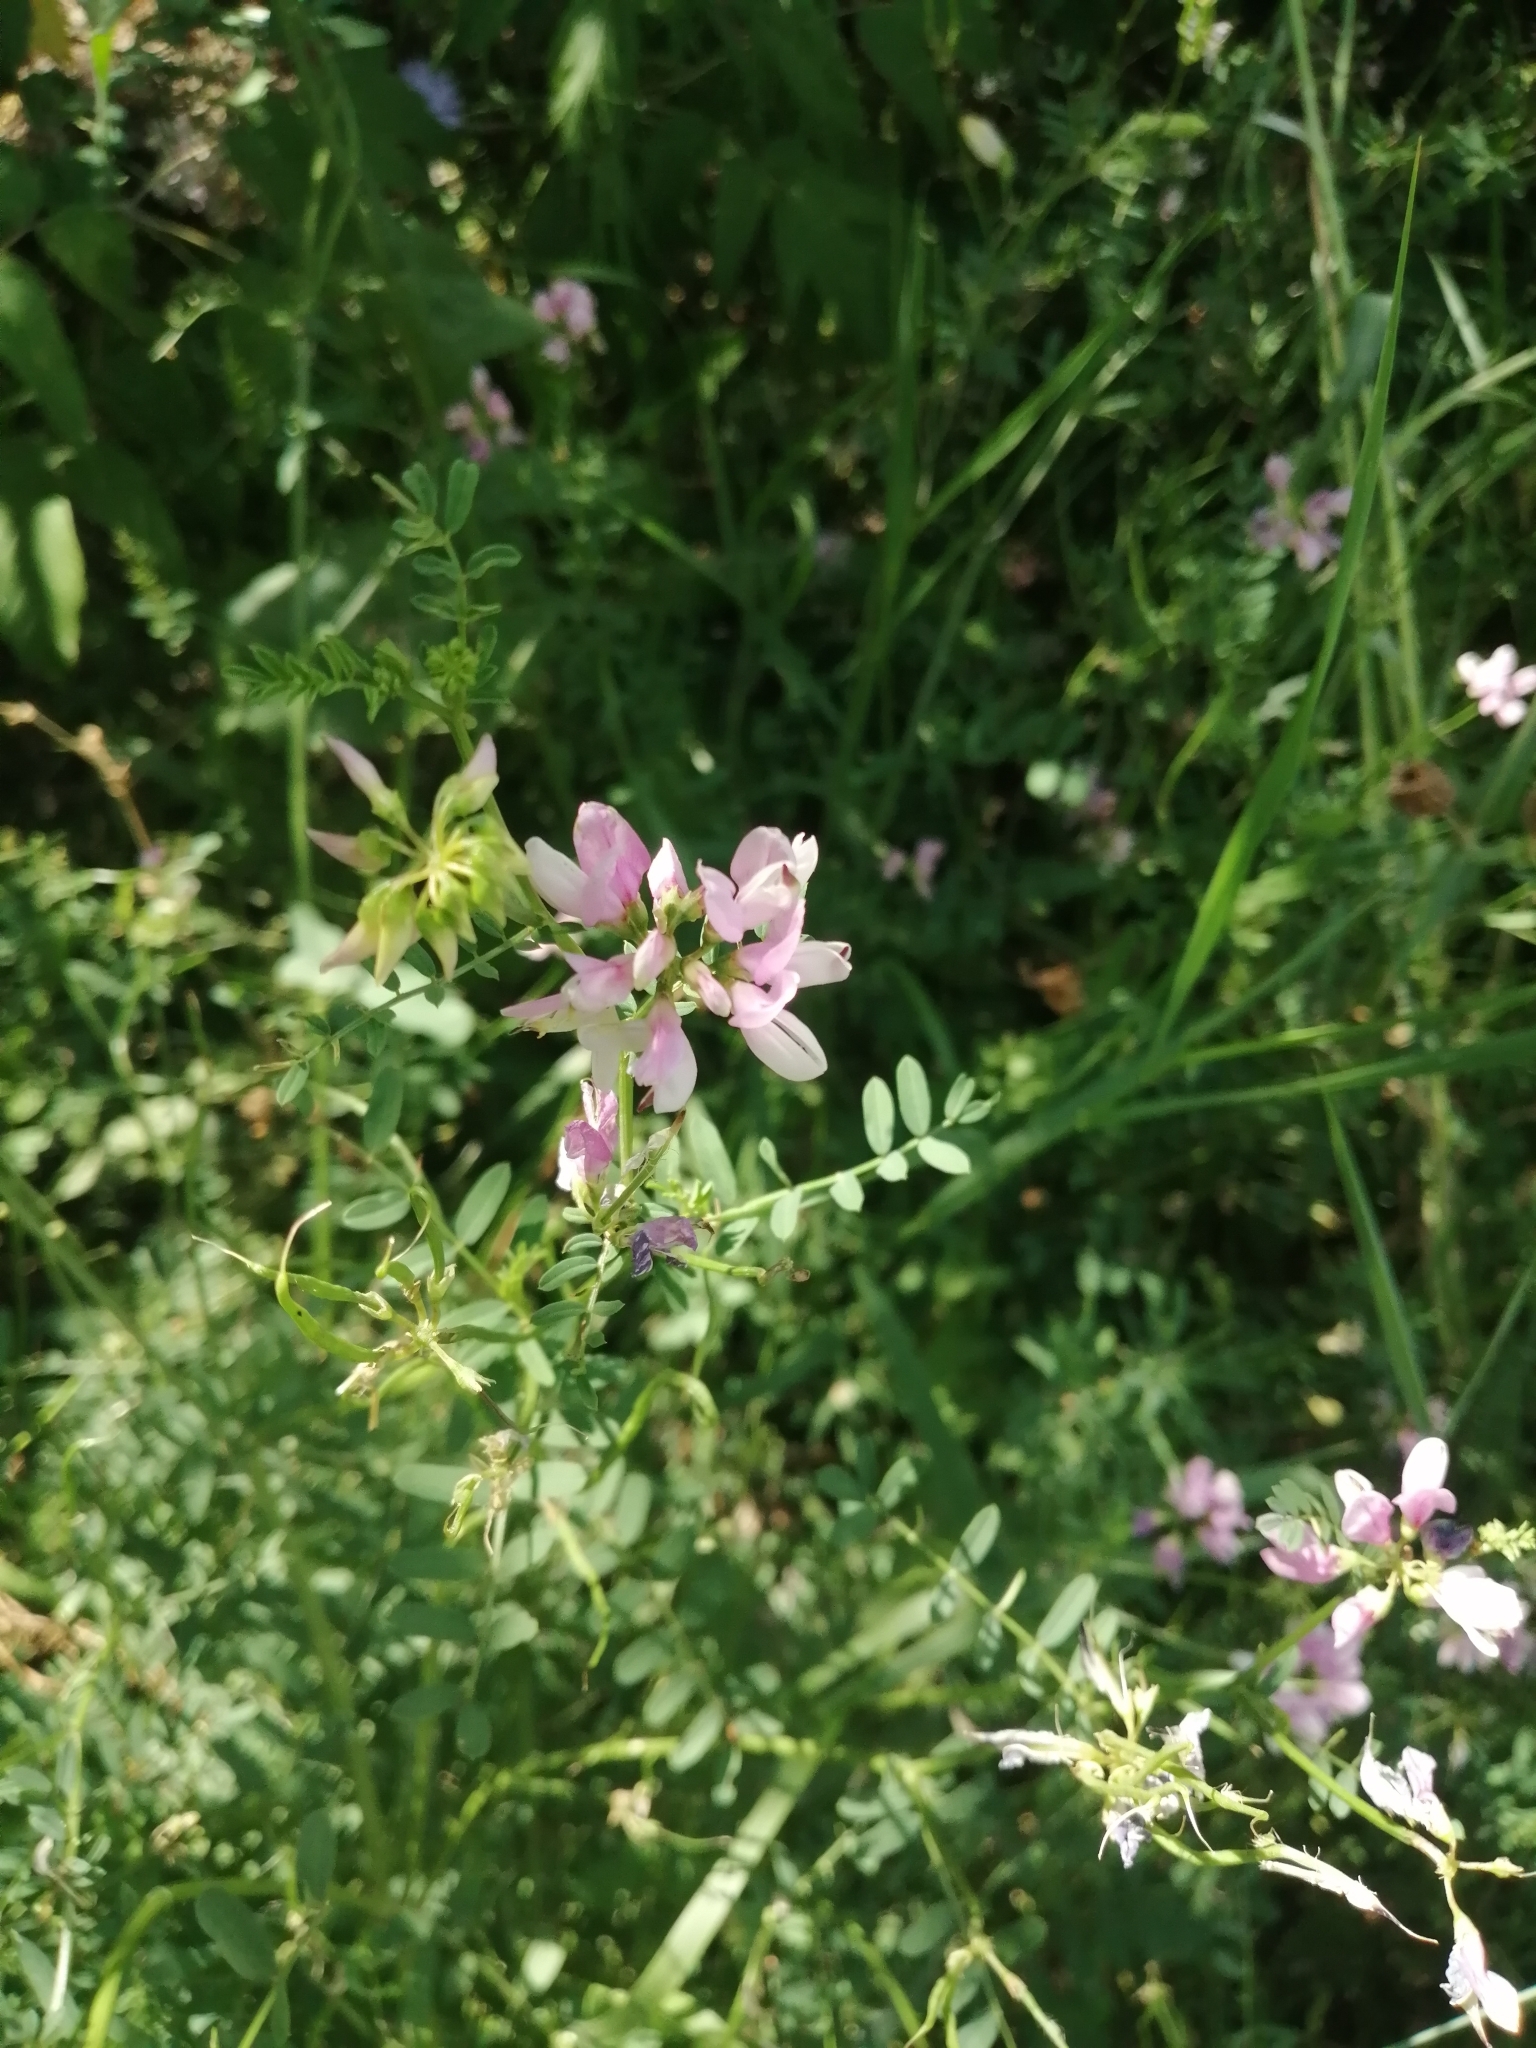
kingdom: Plantae
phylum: Tracheophyta
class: Magnoliopsida
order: Fabales
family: Fabaceae
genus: Coronilla
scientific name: Coronilla varia
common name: Crownvetch
